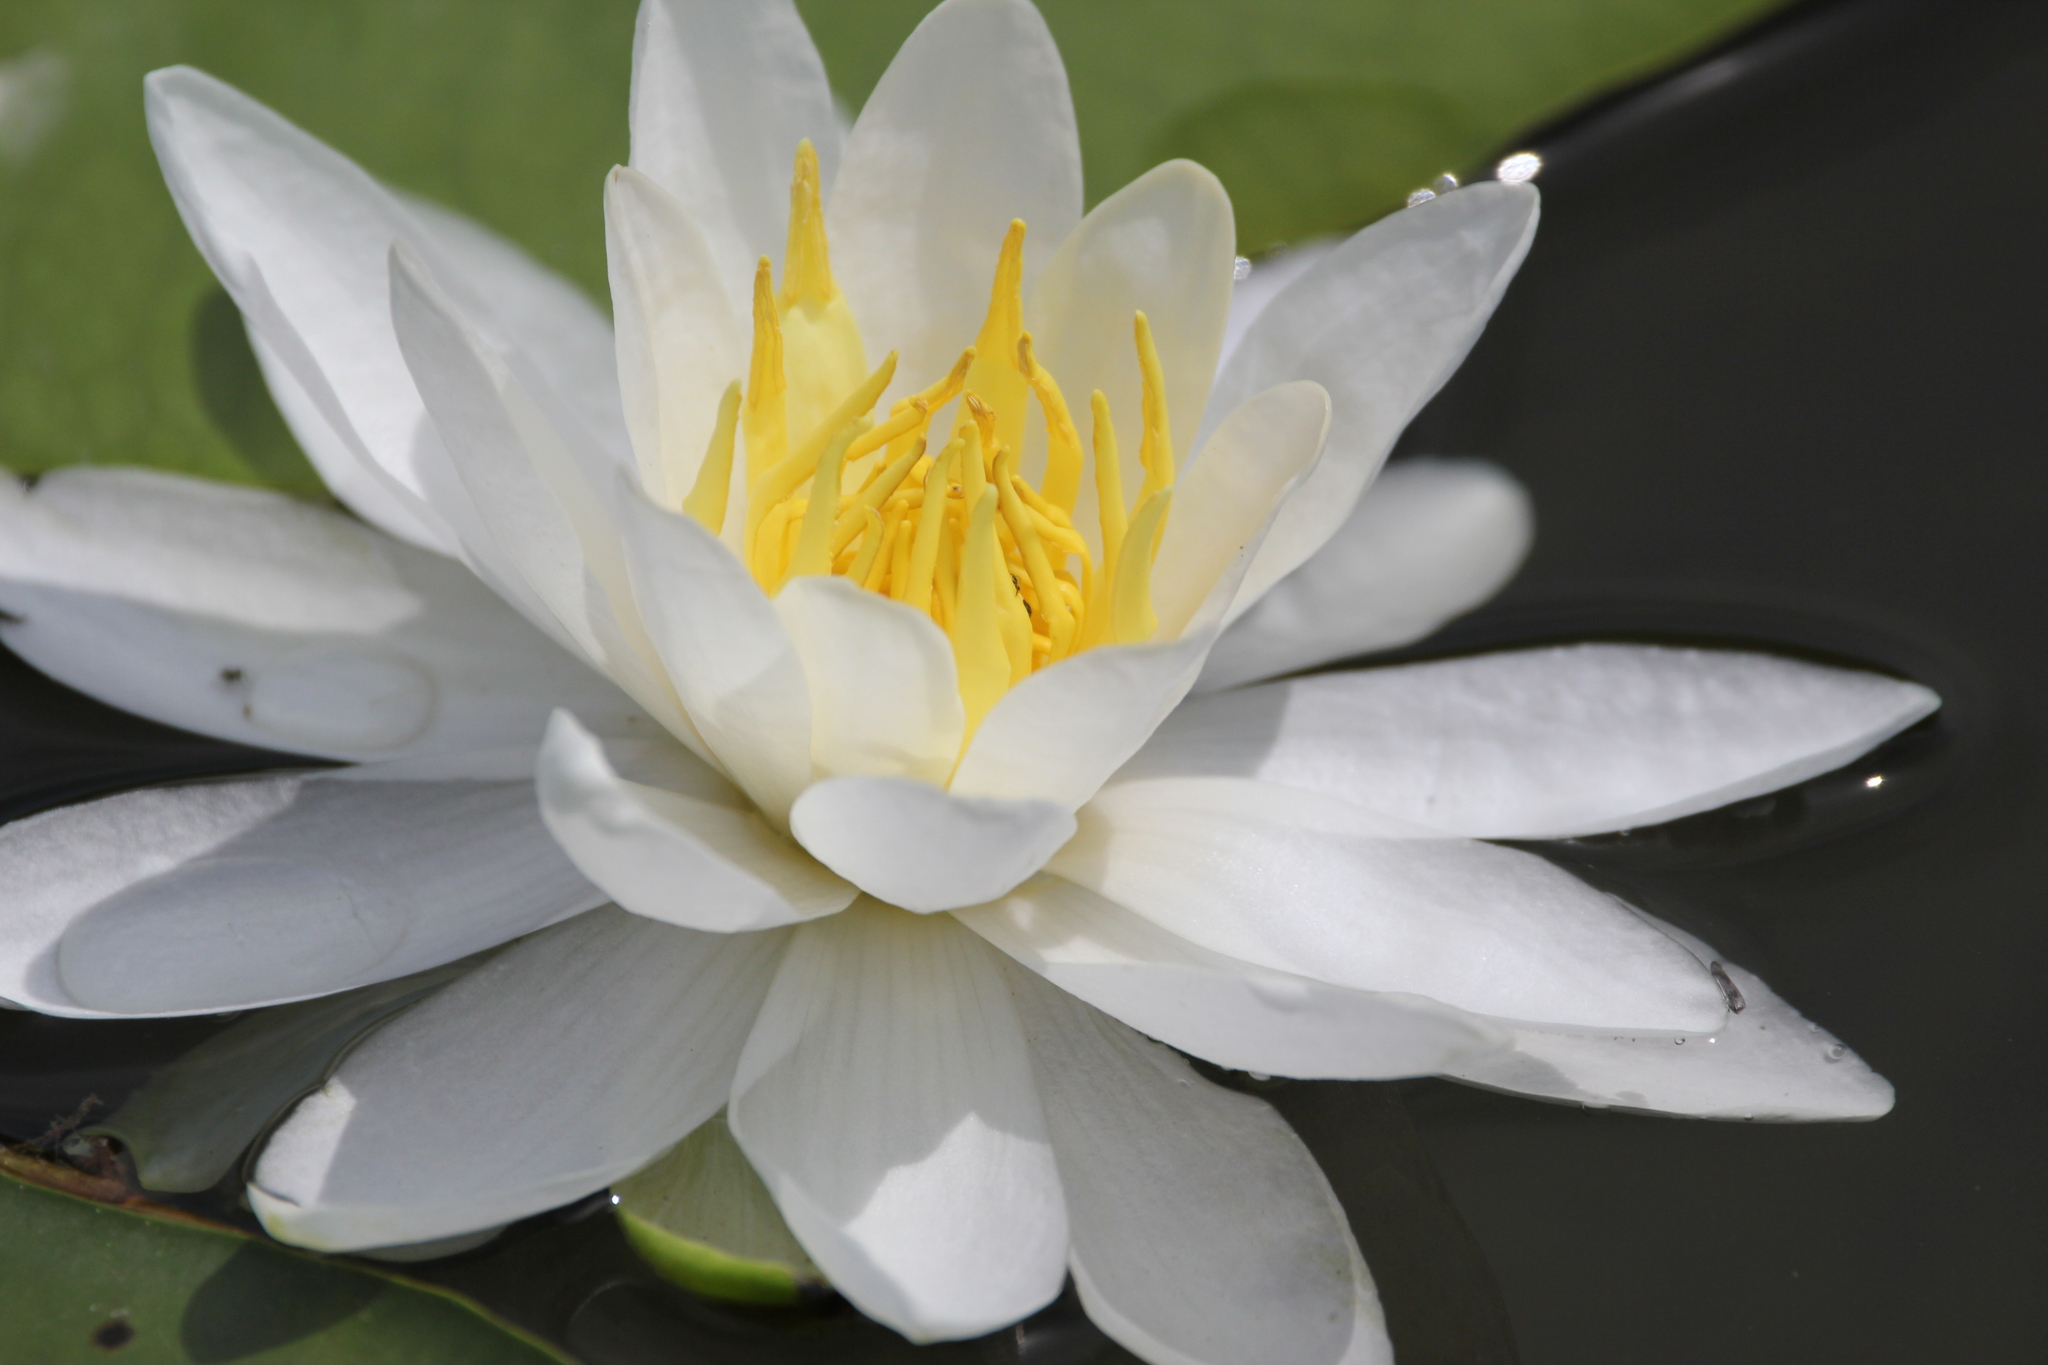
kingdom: Plantae
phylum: Tracheophyta
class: Magnoliopsida
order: Nymphaeales
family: Nymphaeaceae
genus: Nymphaea
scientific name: Nymphaea odorata
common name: Fragrant water-lily
